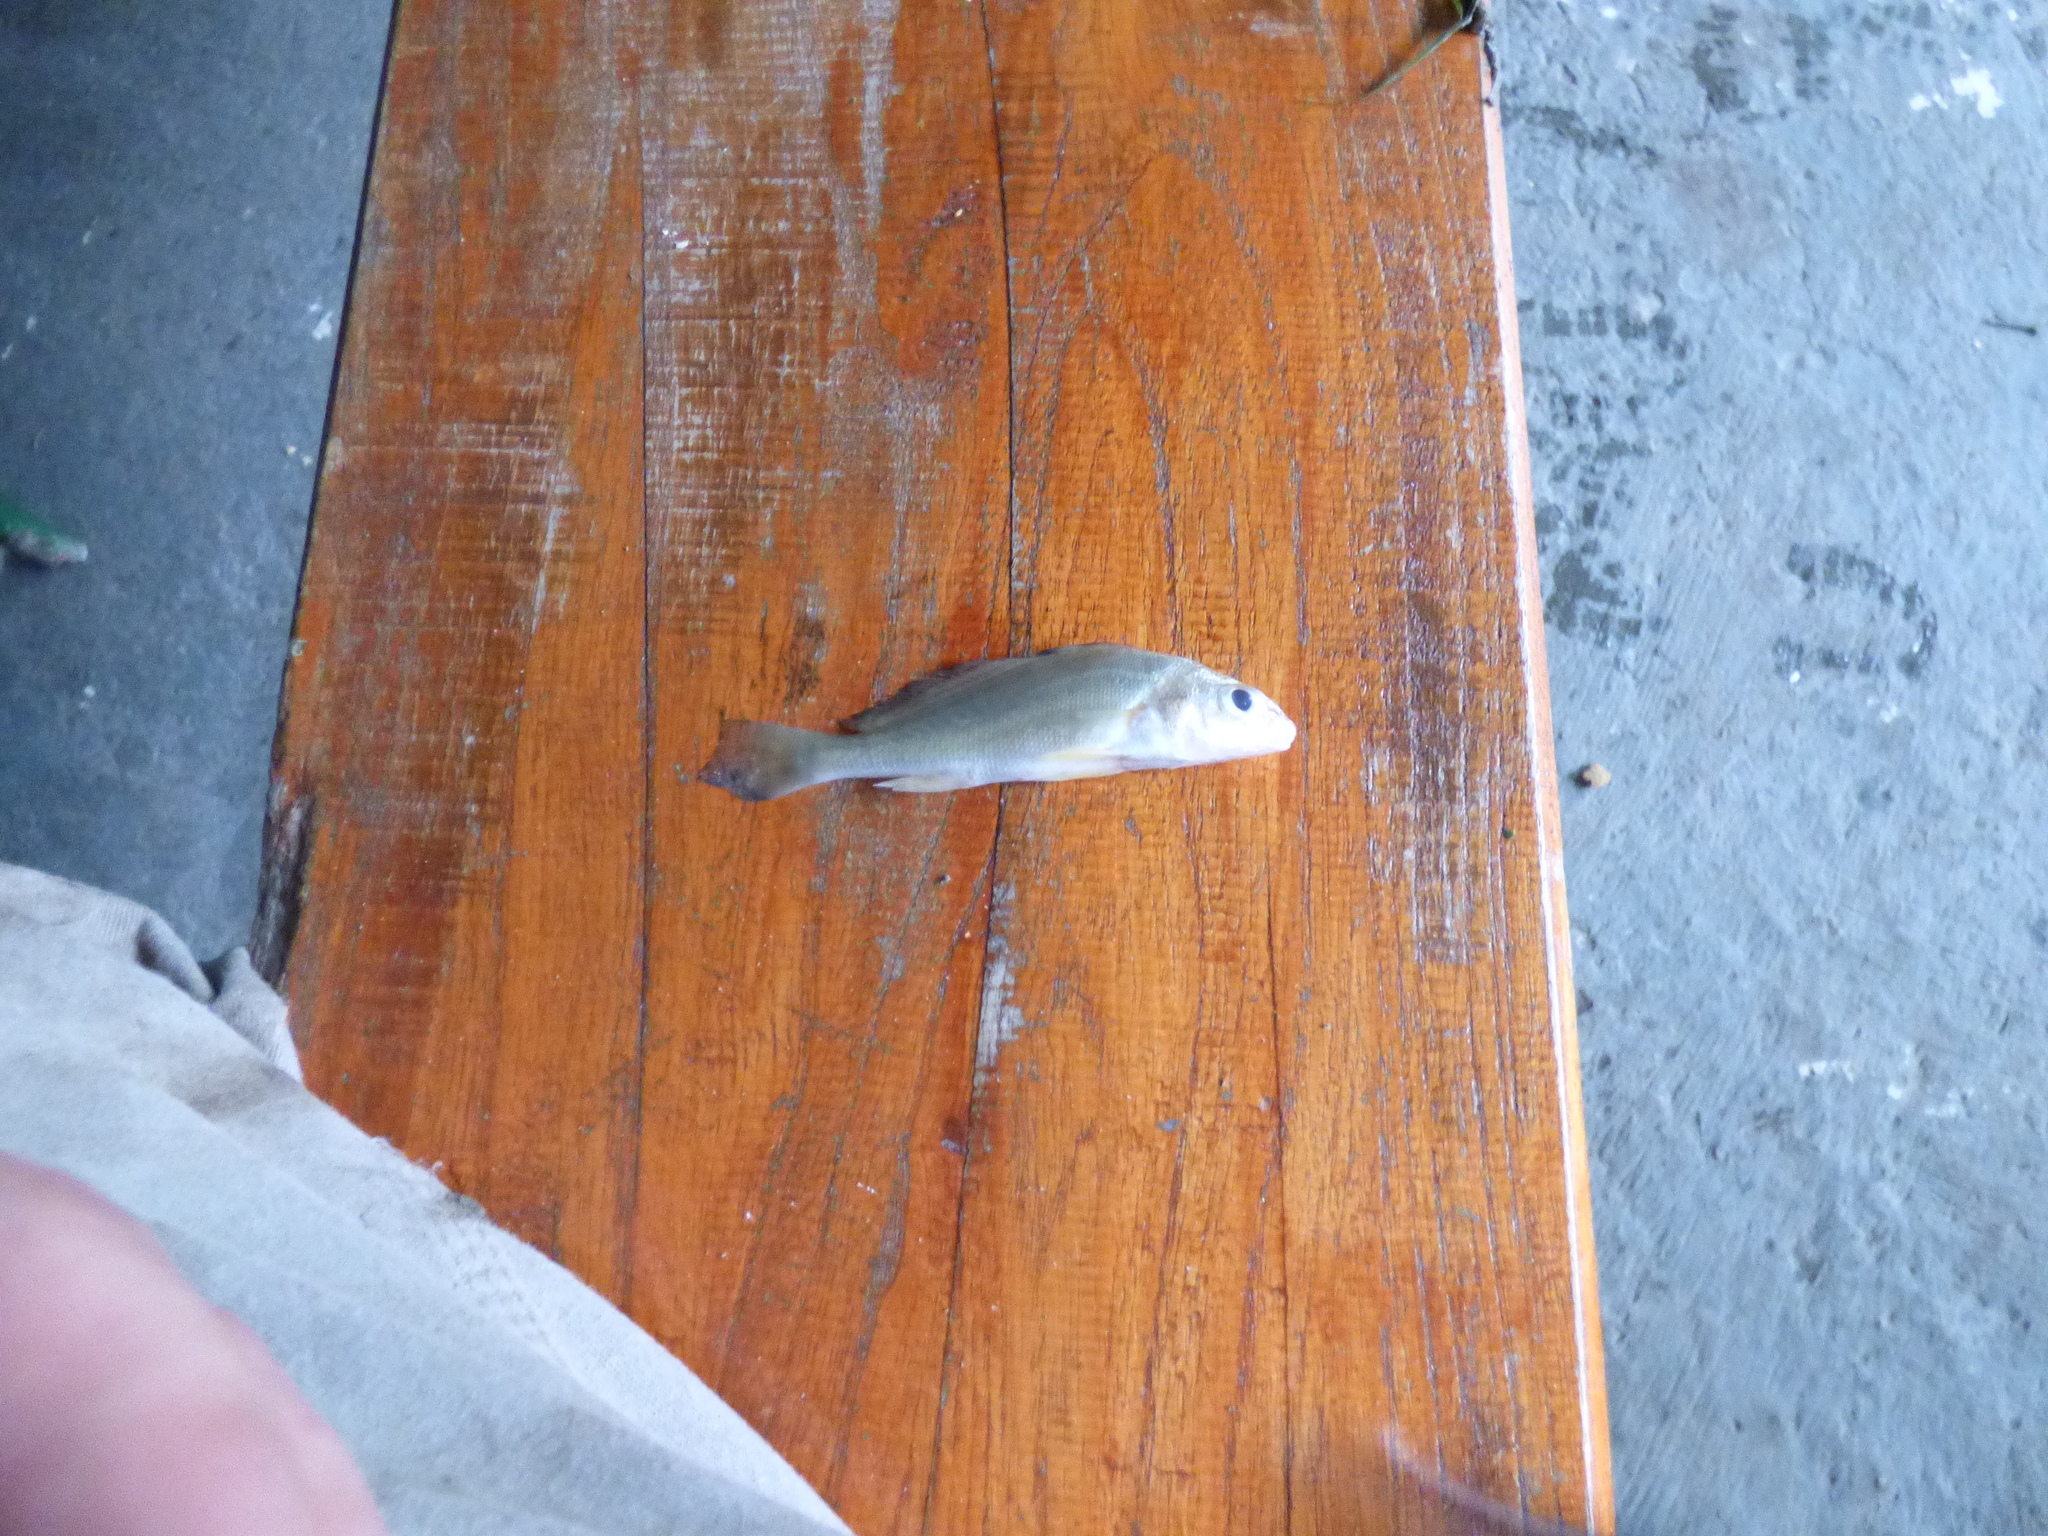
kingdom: Animalia
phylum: Chordata
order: Perciformes
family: Sciaenidae
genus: Pachyurus
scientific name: Pachyurus bonariensis
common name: La plata croaker
